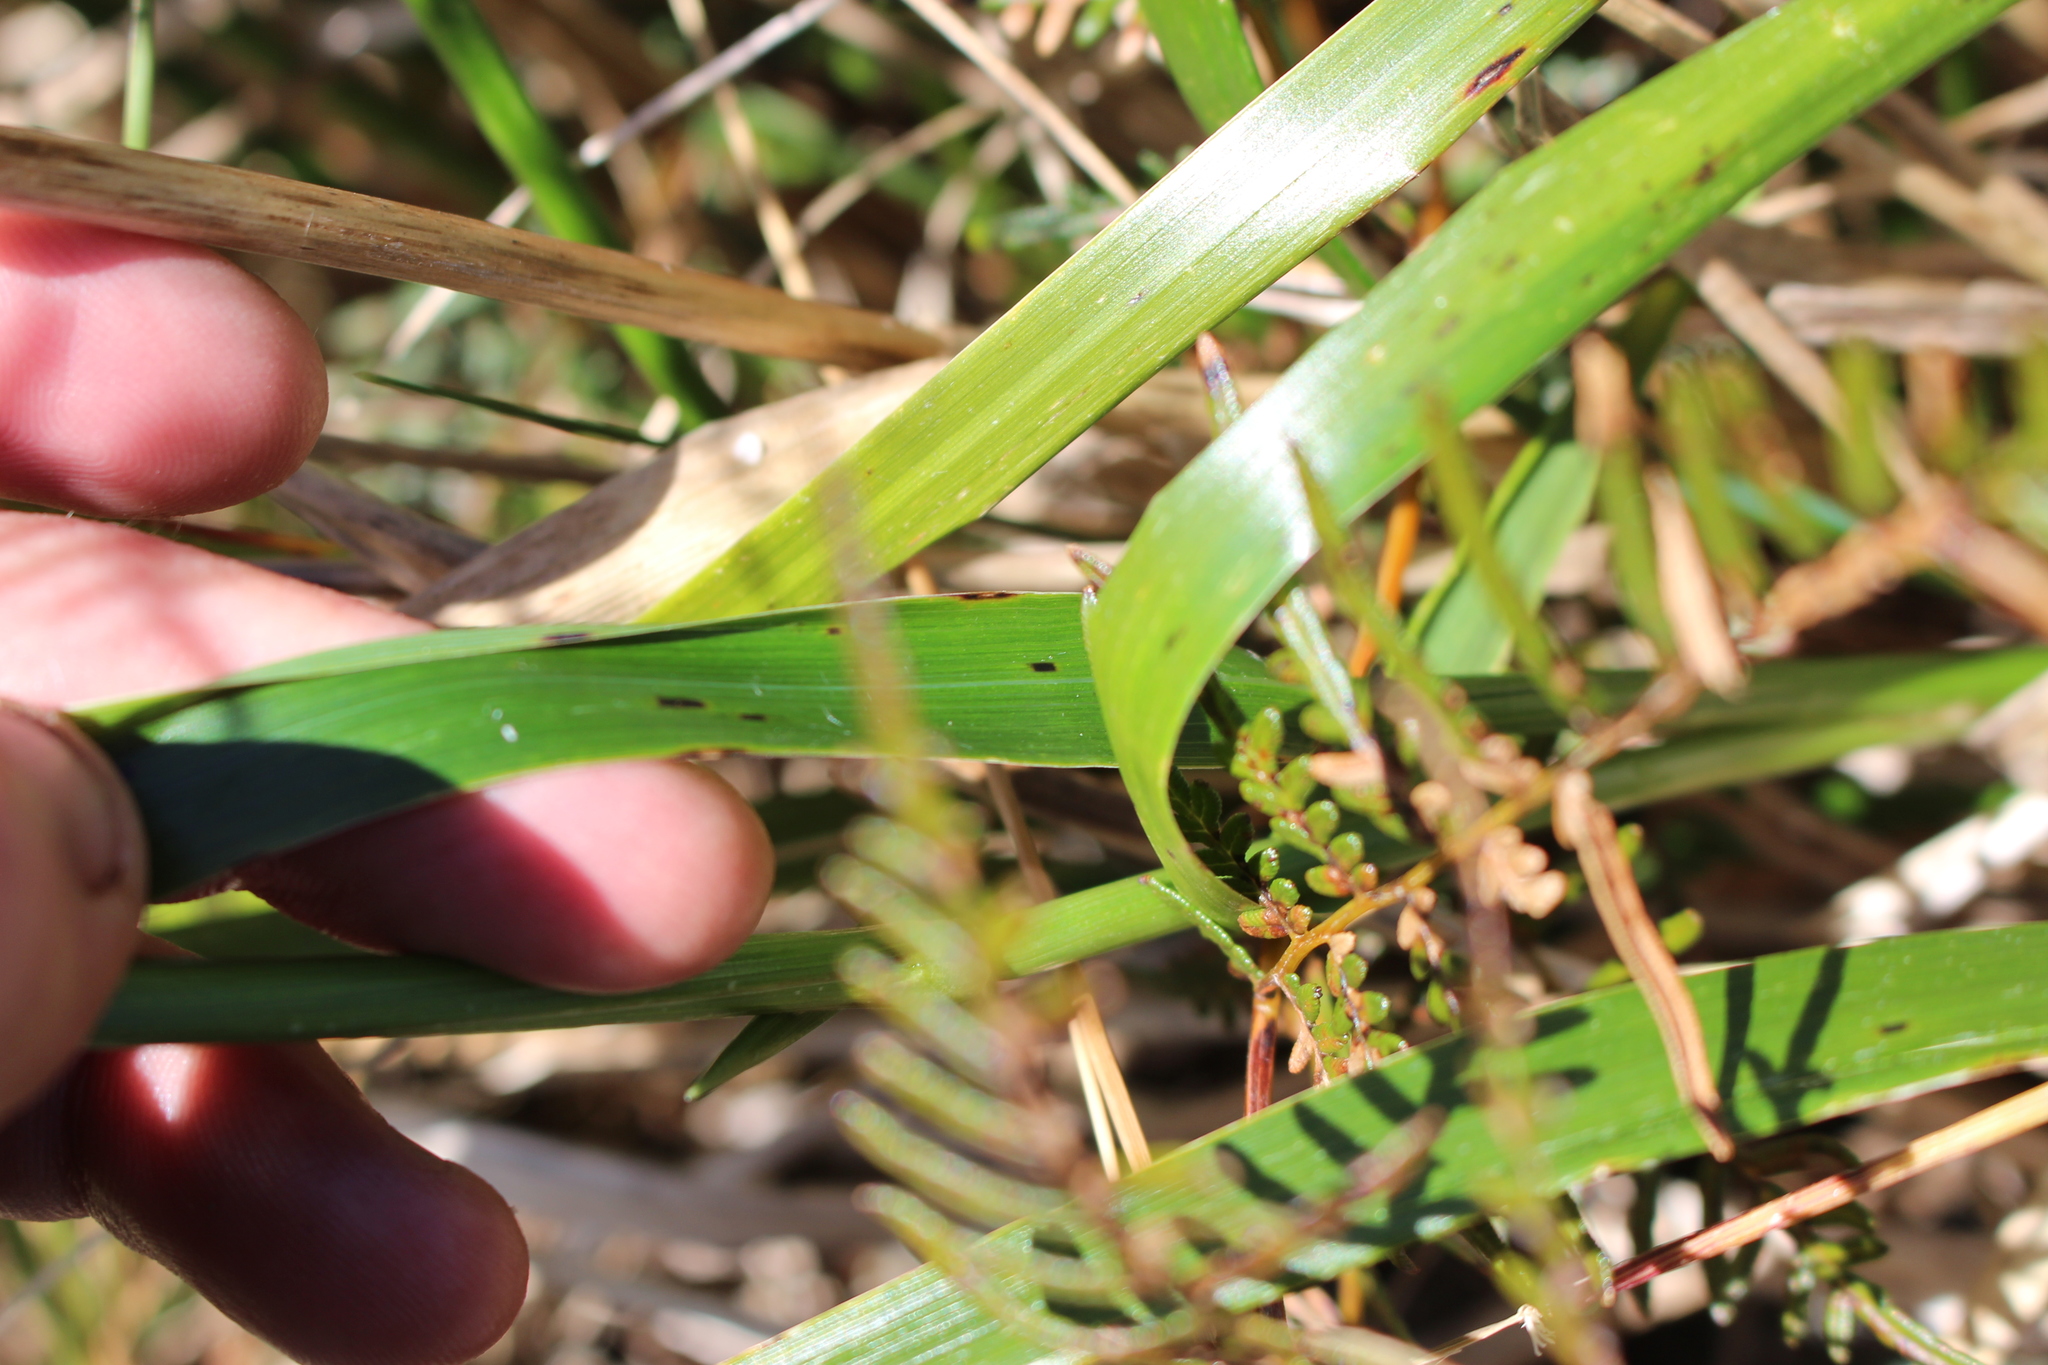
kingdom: Plantae
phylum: Tracheophyta
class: Liliopsida
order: Poales
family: Poaceae
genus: Anthoxanthum
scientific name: Anthoxanthum redolens
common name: Sweet holy grass
